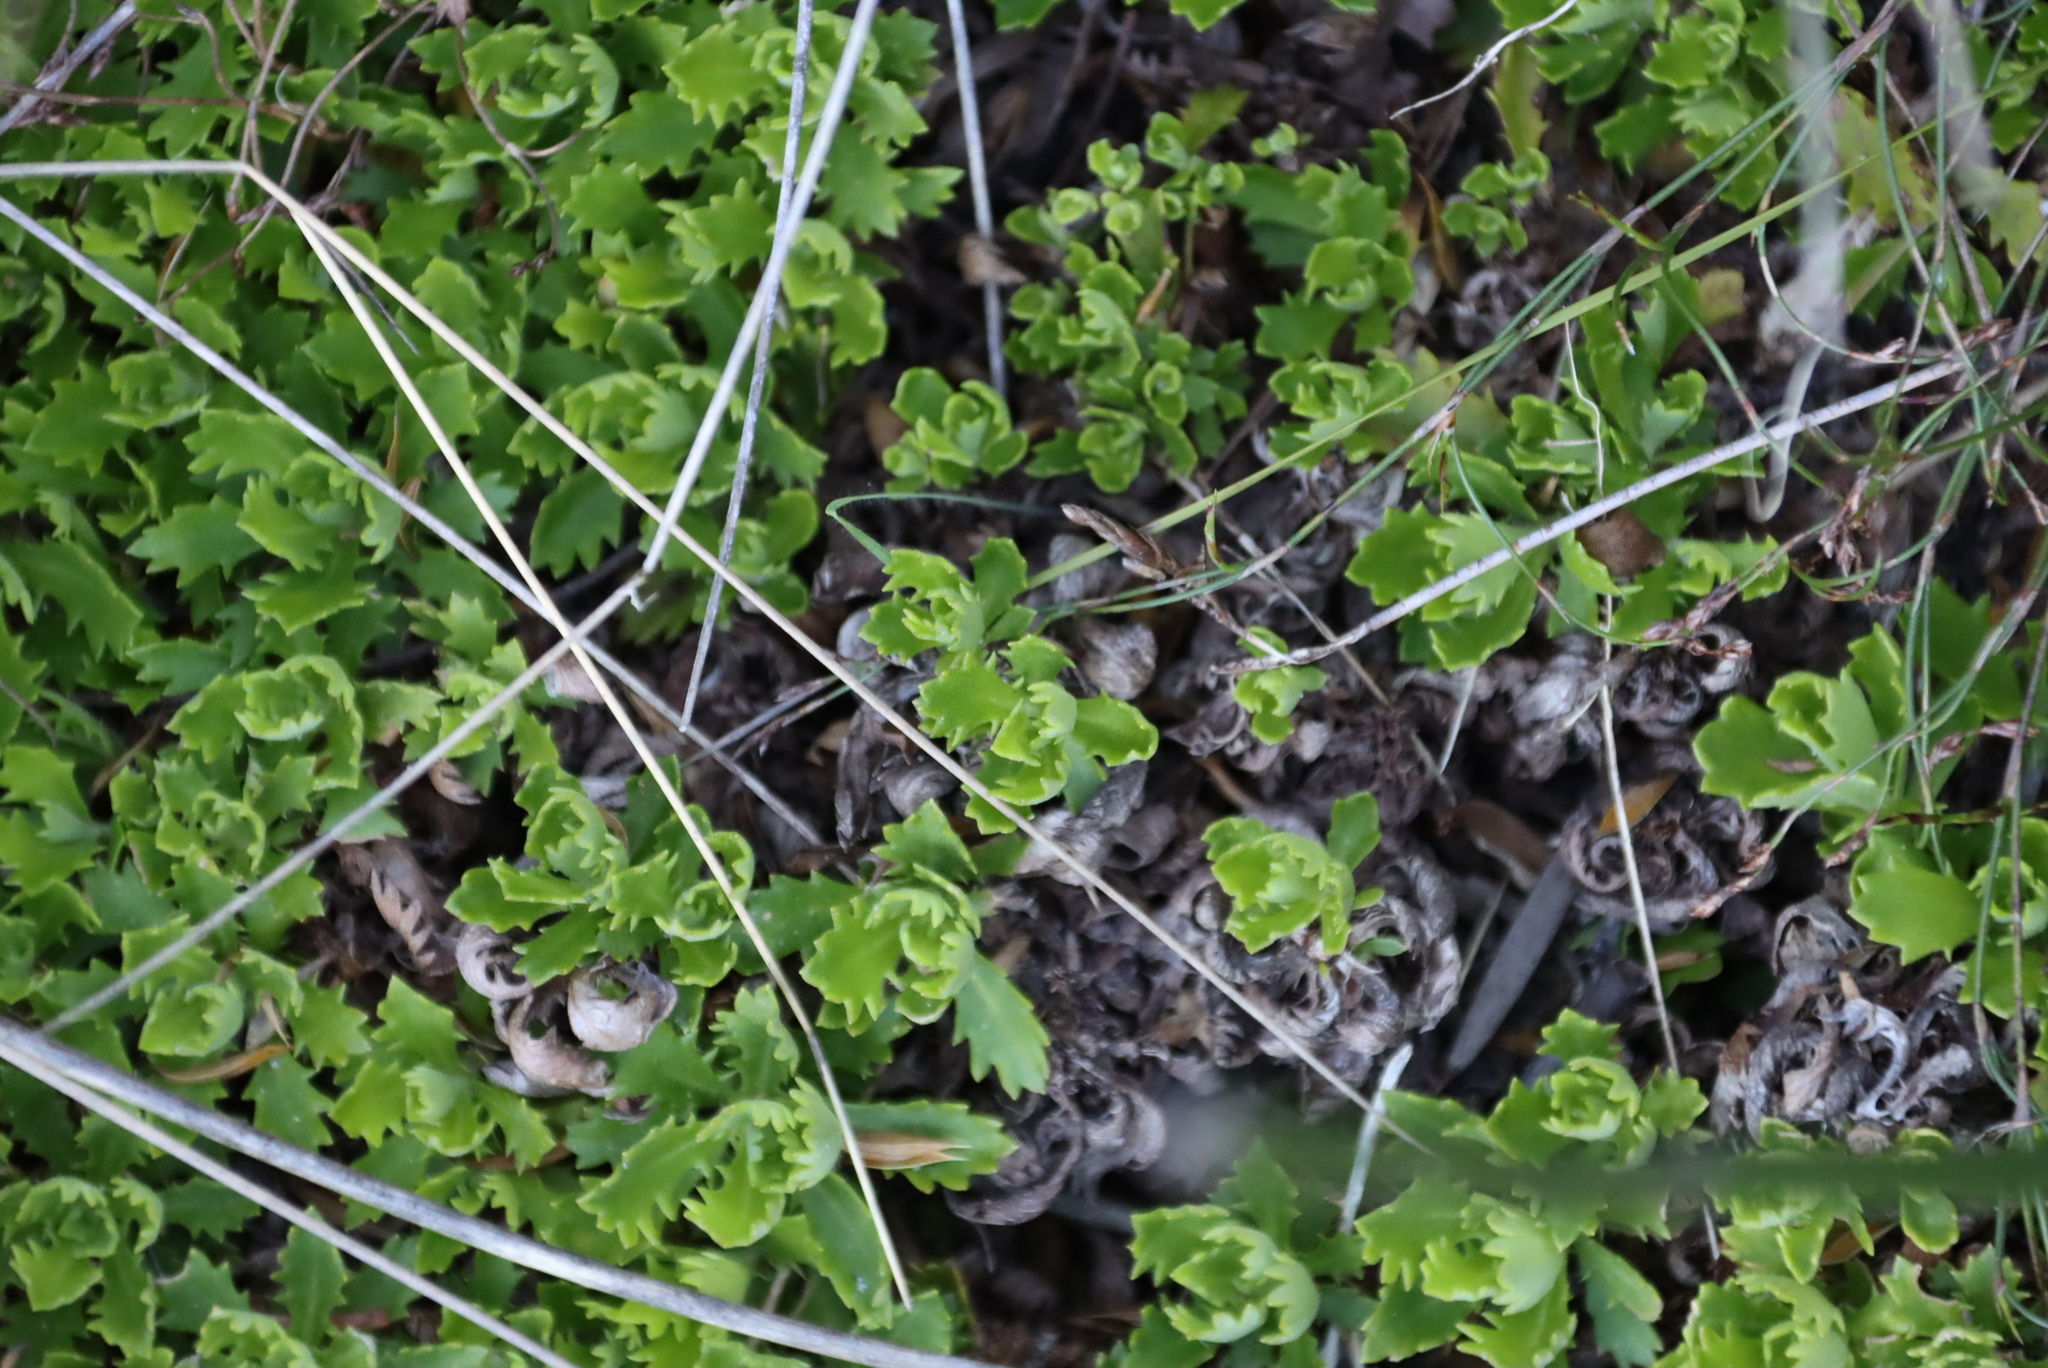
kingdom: Plantae
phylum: Tracheophyta
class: Magnoliopsida
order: Asterales
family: Asteraceae
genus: Osmitopsis
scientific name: Osmitopsis dentata
